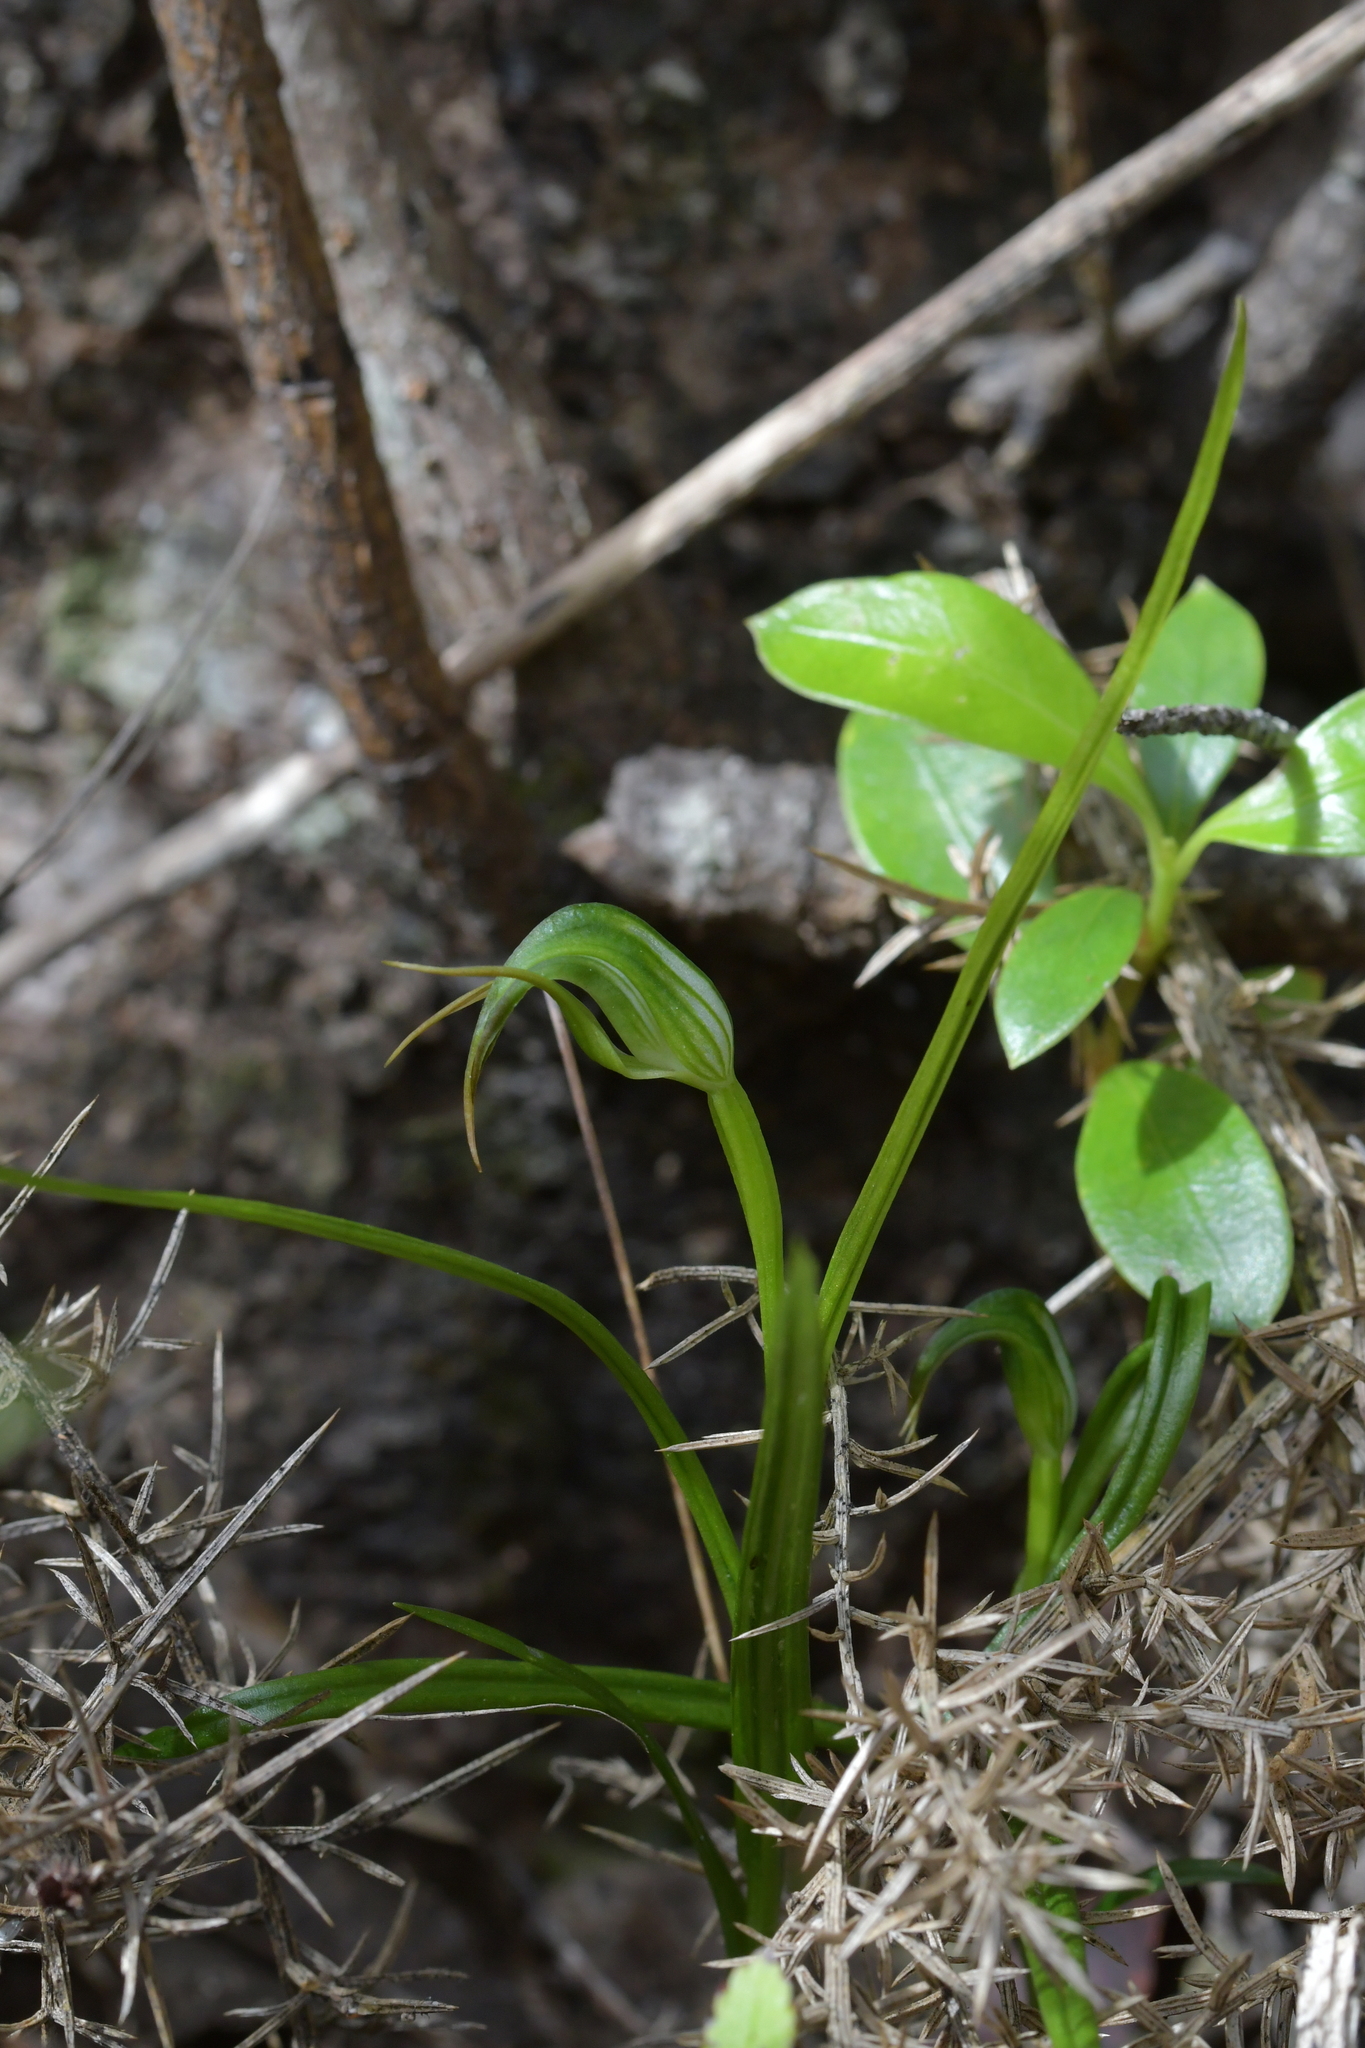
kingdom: Plantae
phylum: Tracheophyta
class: Liliopsida
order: Asparagales
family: Orchidaceae
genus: Pterostylis
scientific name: Pterostylis graminea
